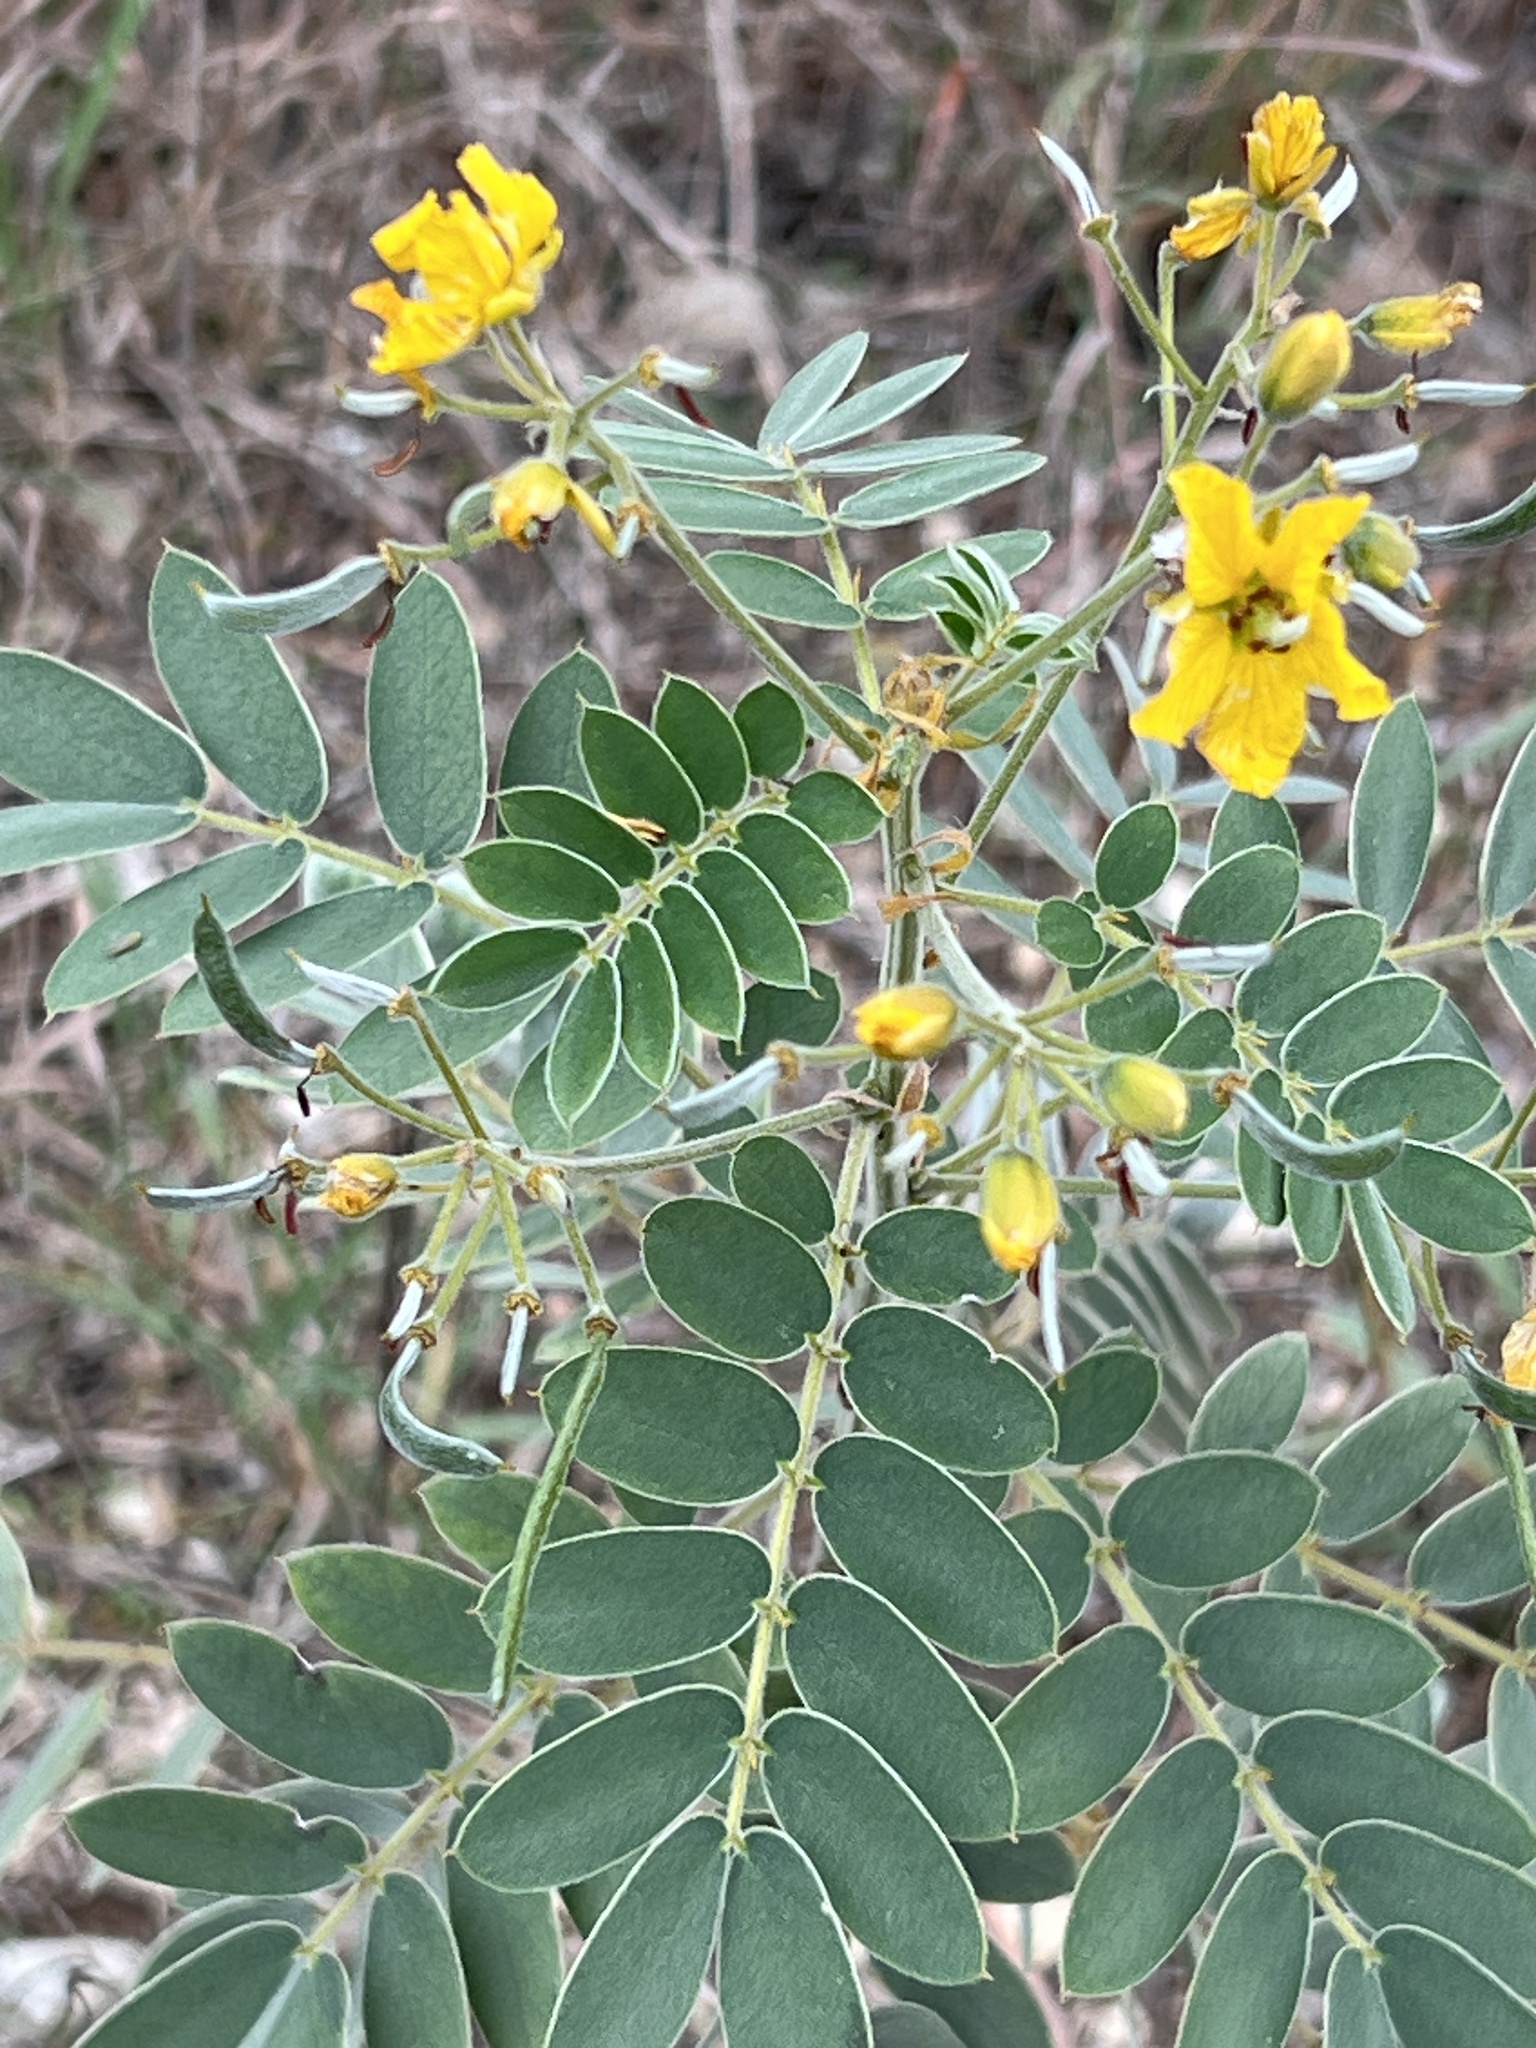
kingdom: Plantae
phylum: Tracheophyta
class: Magnoliopsida
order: Fabales
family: Fabaceae
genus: Senna
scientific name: Senna lindheimeriana
